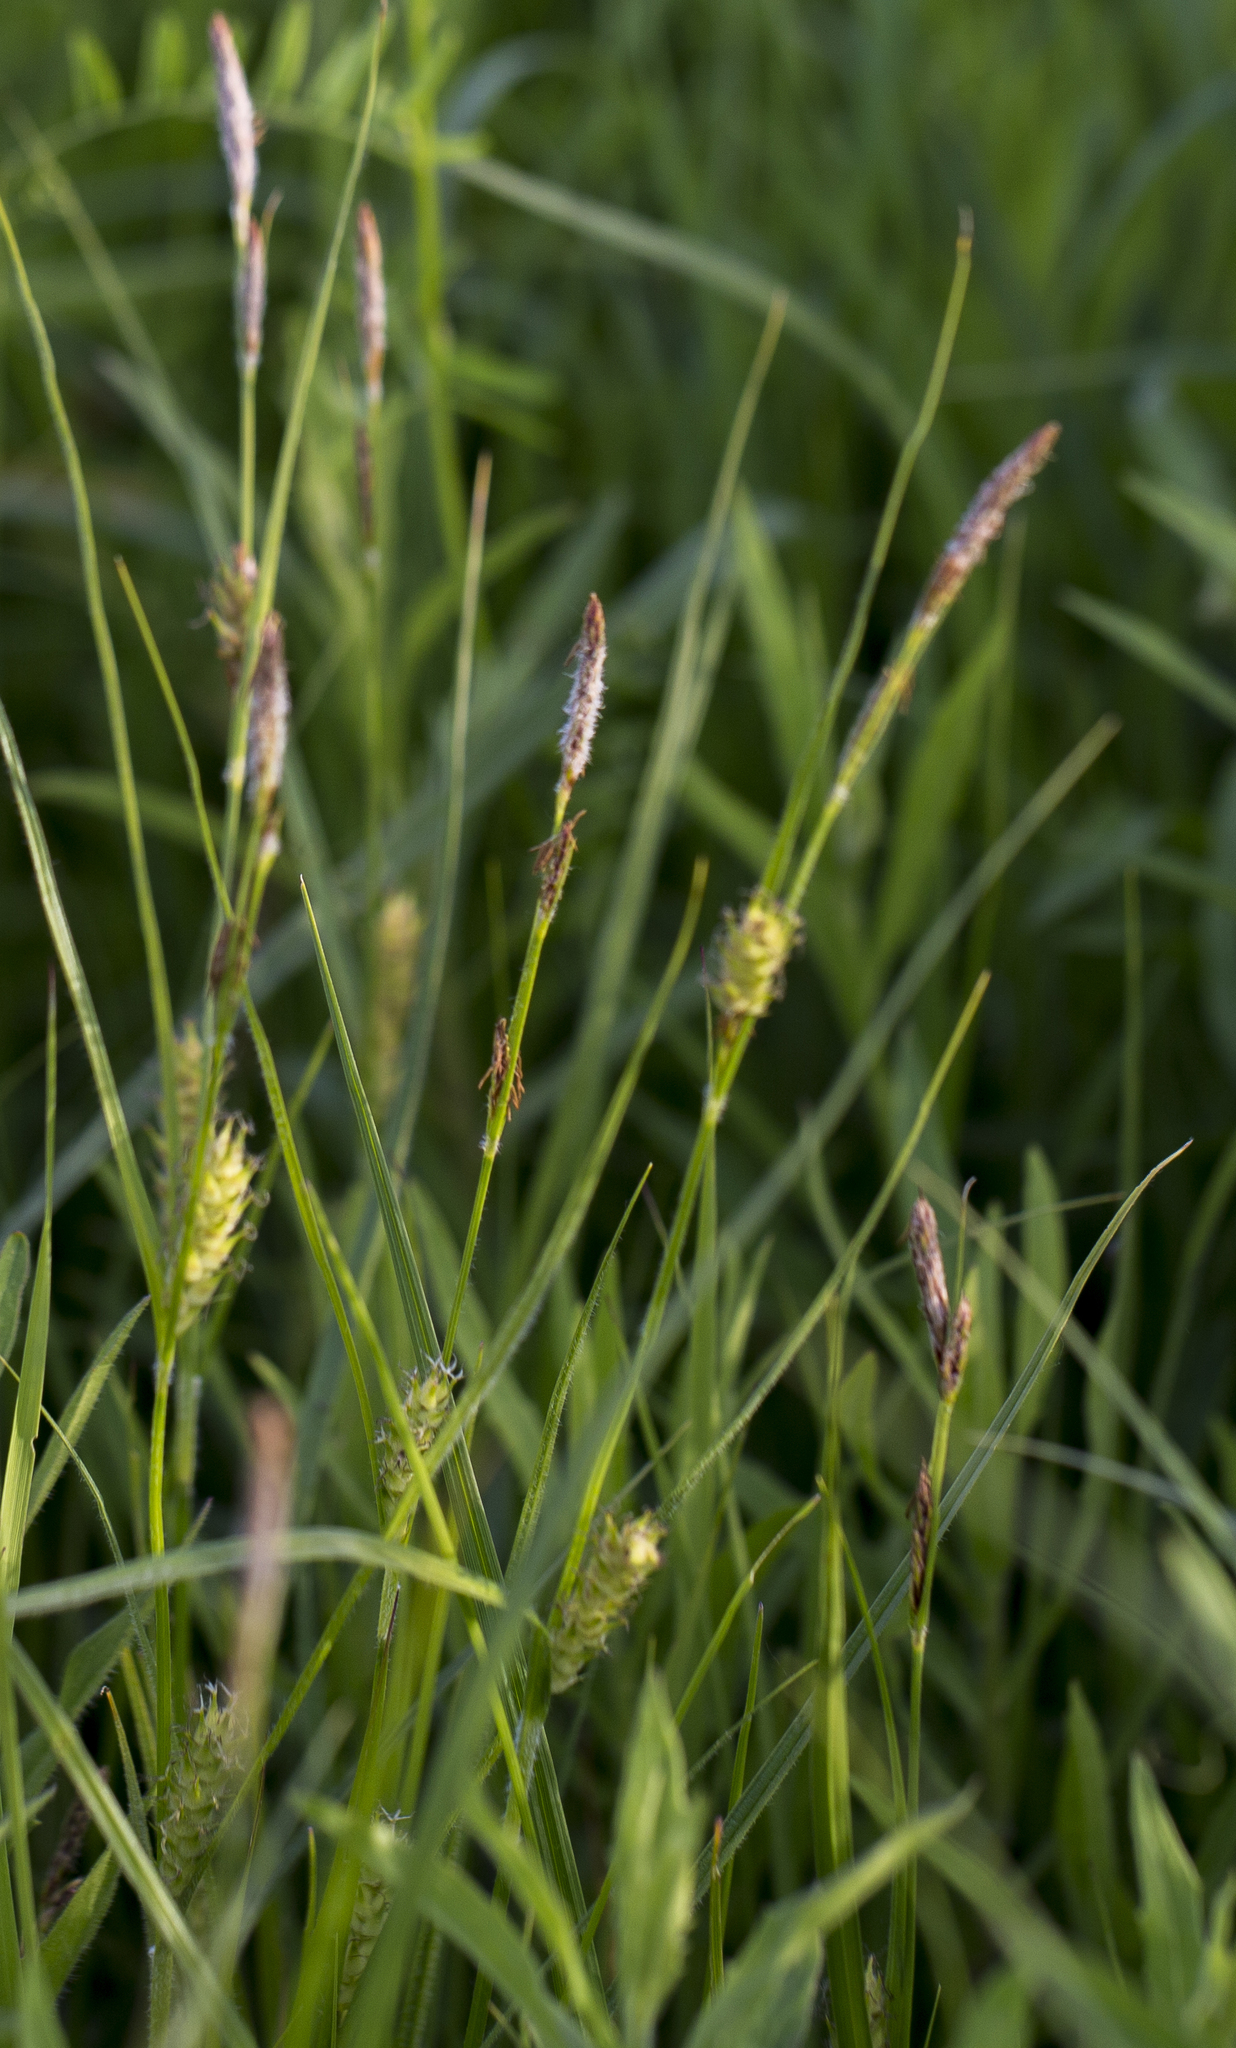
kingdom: Plantae
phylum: Tracheophyta
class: Liliopsida
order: Poales
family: Cyperaceae
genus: Carex
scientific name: Carex hirta
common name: Hairy sedge
